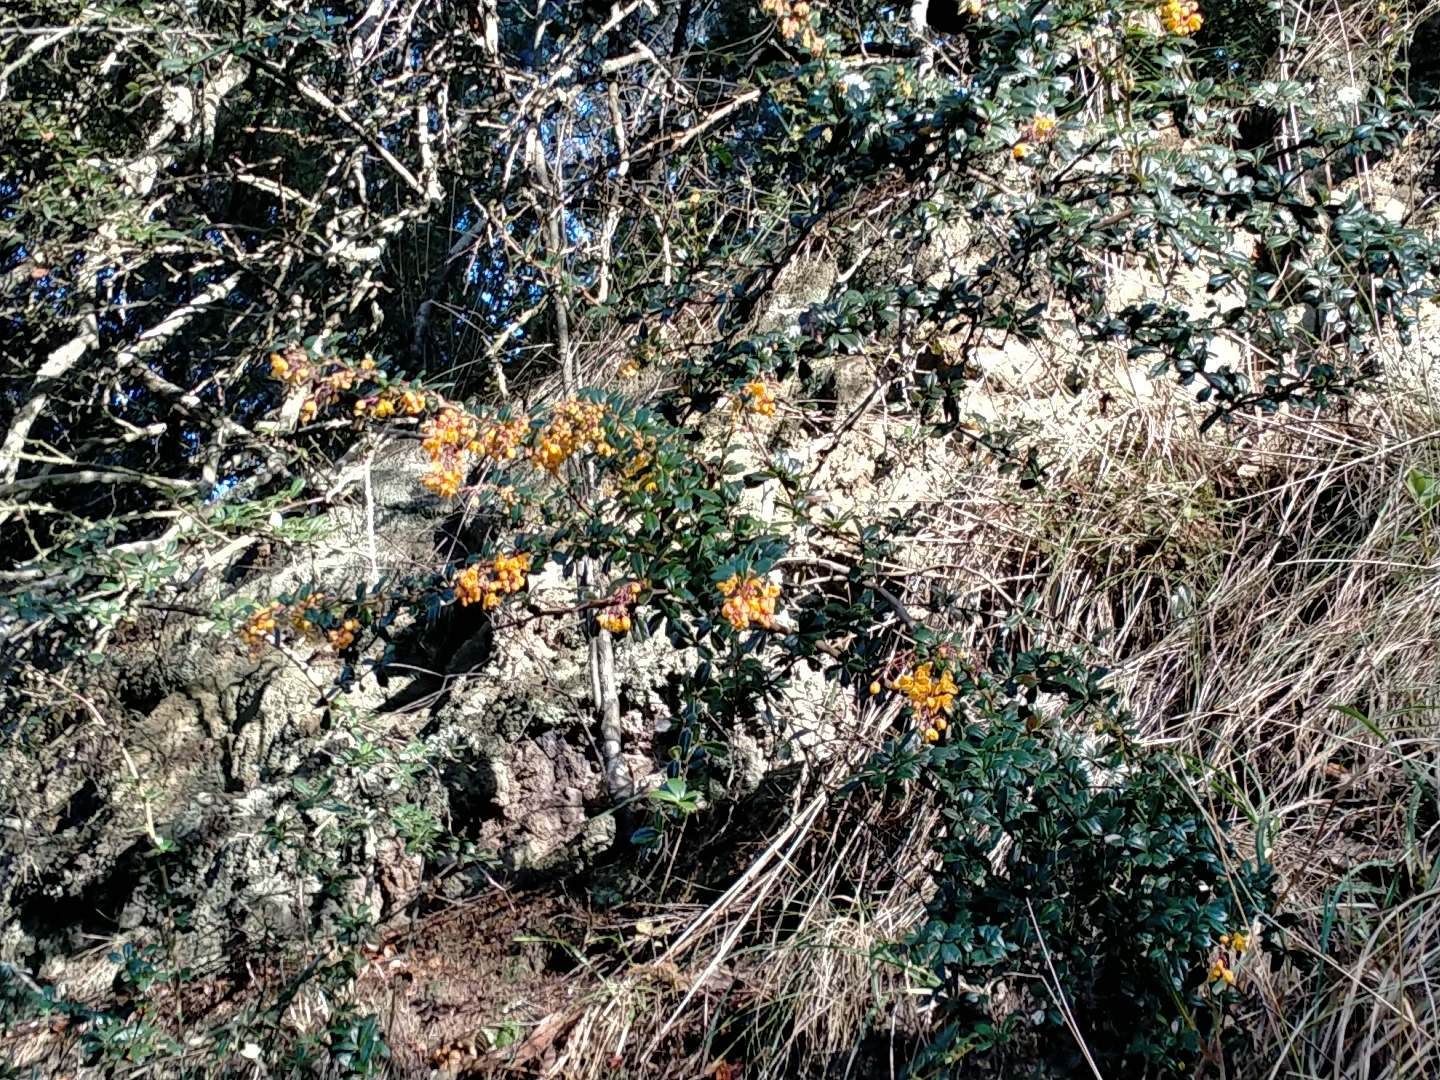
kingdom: Plantae
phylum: Tracheophyta
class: Magnoliopsida
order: Ranunculales
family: Berberidaceae
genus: Berberis
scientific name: Berberis darwinii
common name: Darwin's barberry
